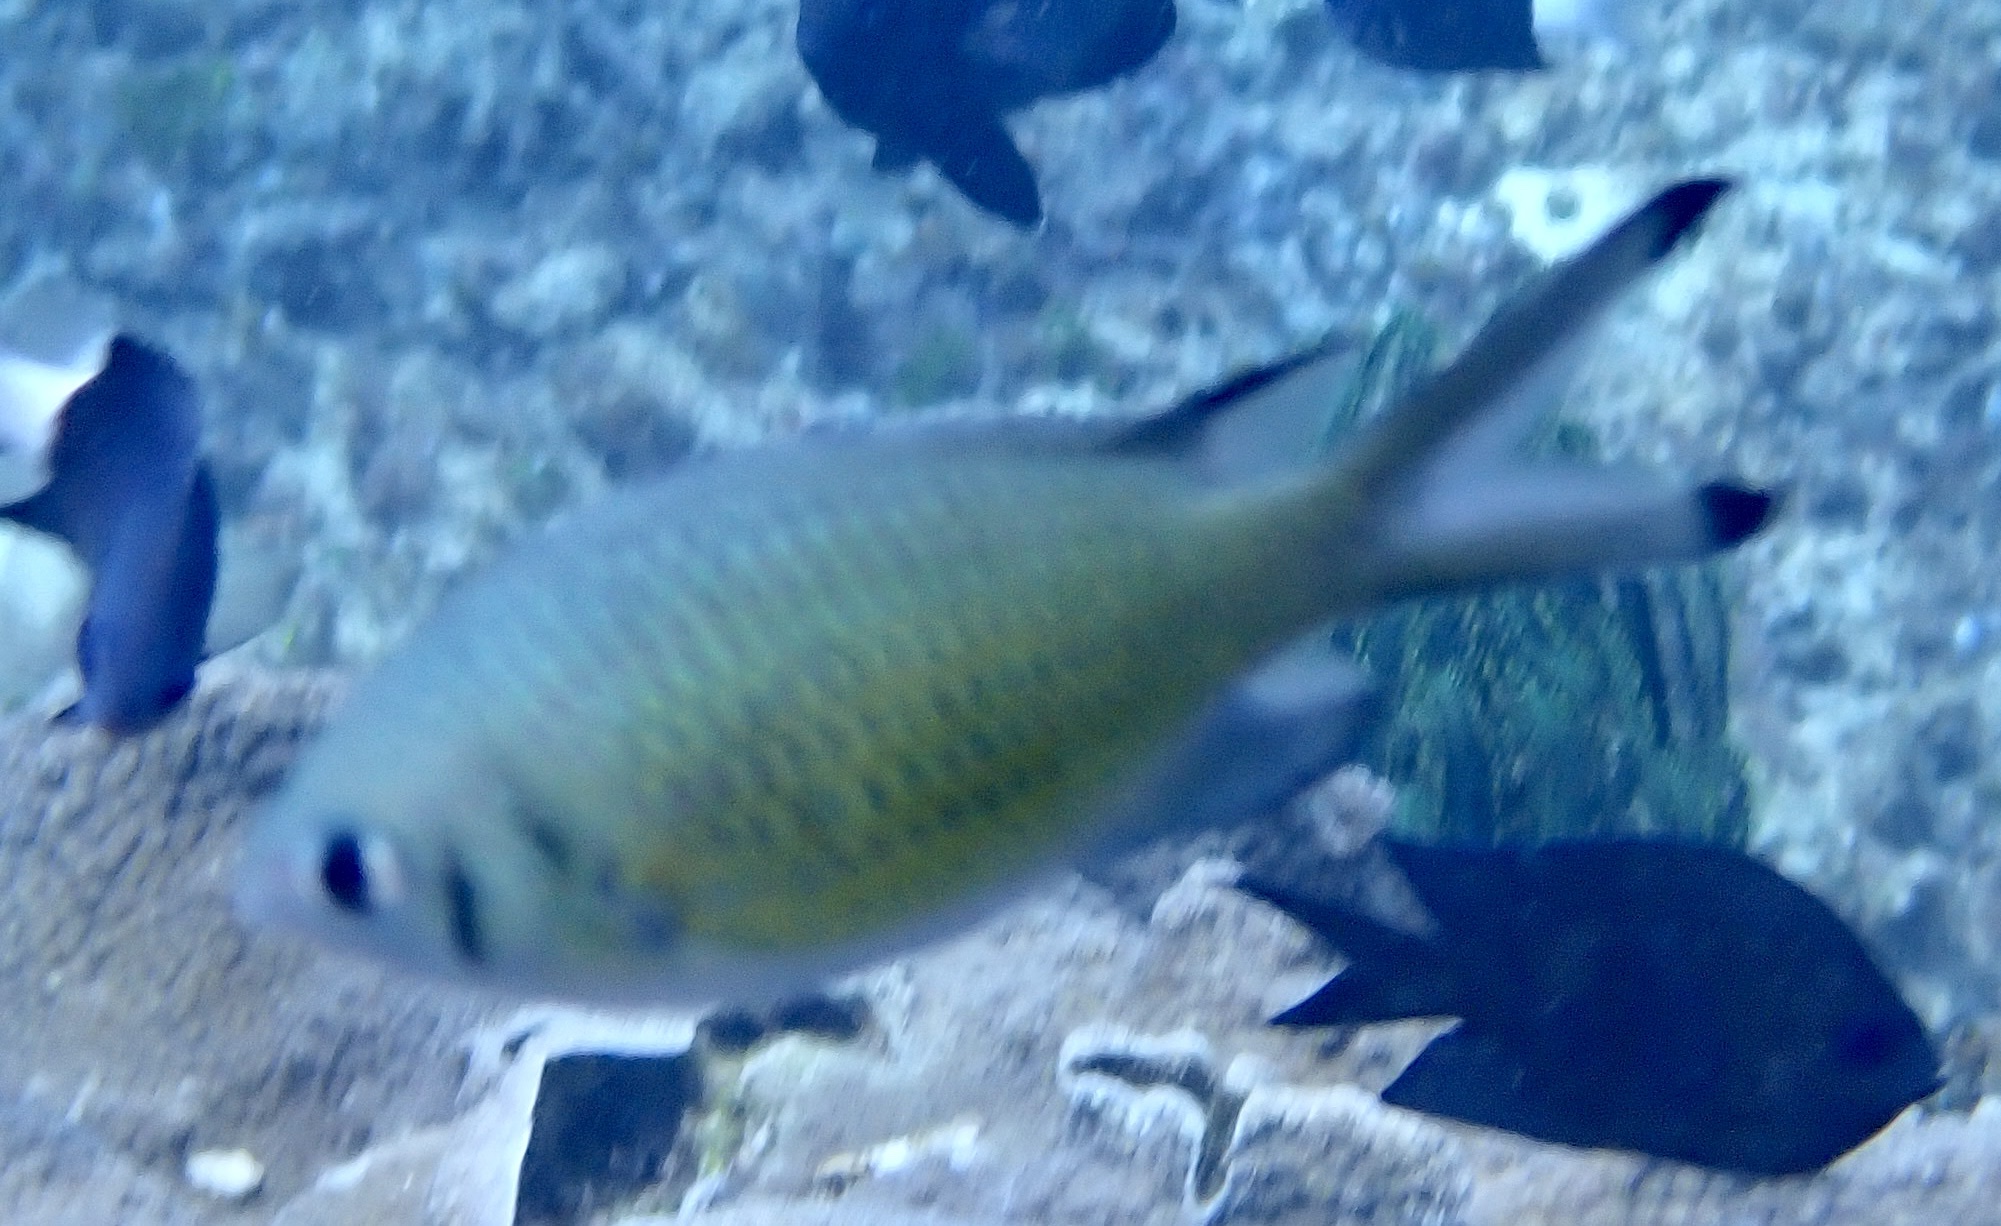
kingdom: Animalia
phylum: Chordata
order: Perciformes
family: Pomacentridae
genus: Chromis
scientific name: Chromis weberi
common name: Weber's chromis
